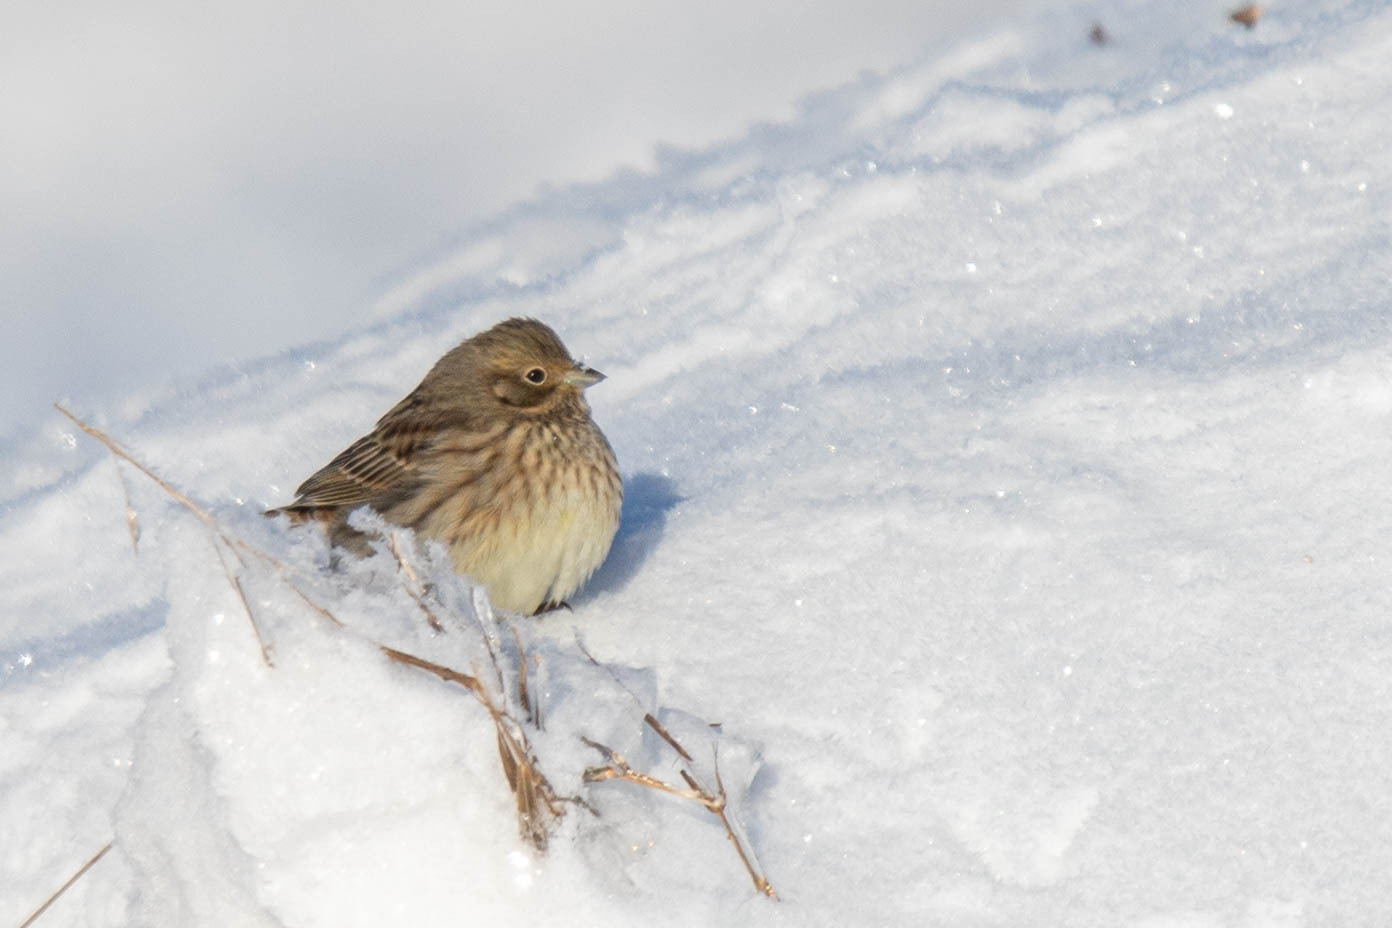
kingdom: Animalia
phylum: Chordata
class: Aves
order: Passeriformes
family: Emberizidae
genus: Emberiza
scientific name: Emberiza citrinella
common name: Yellowhammer
